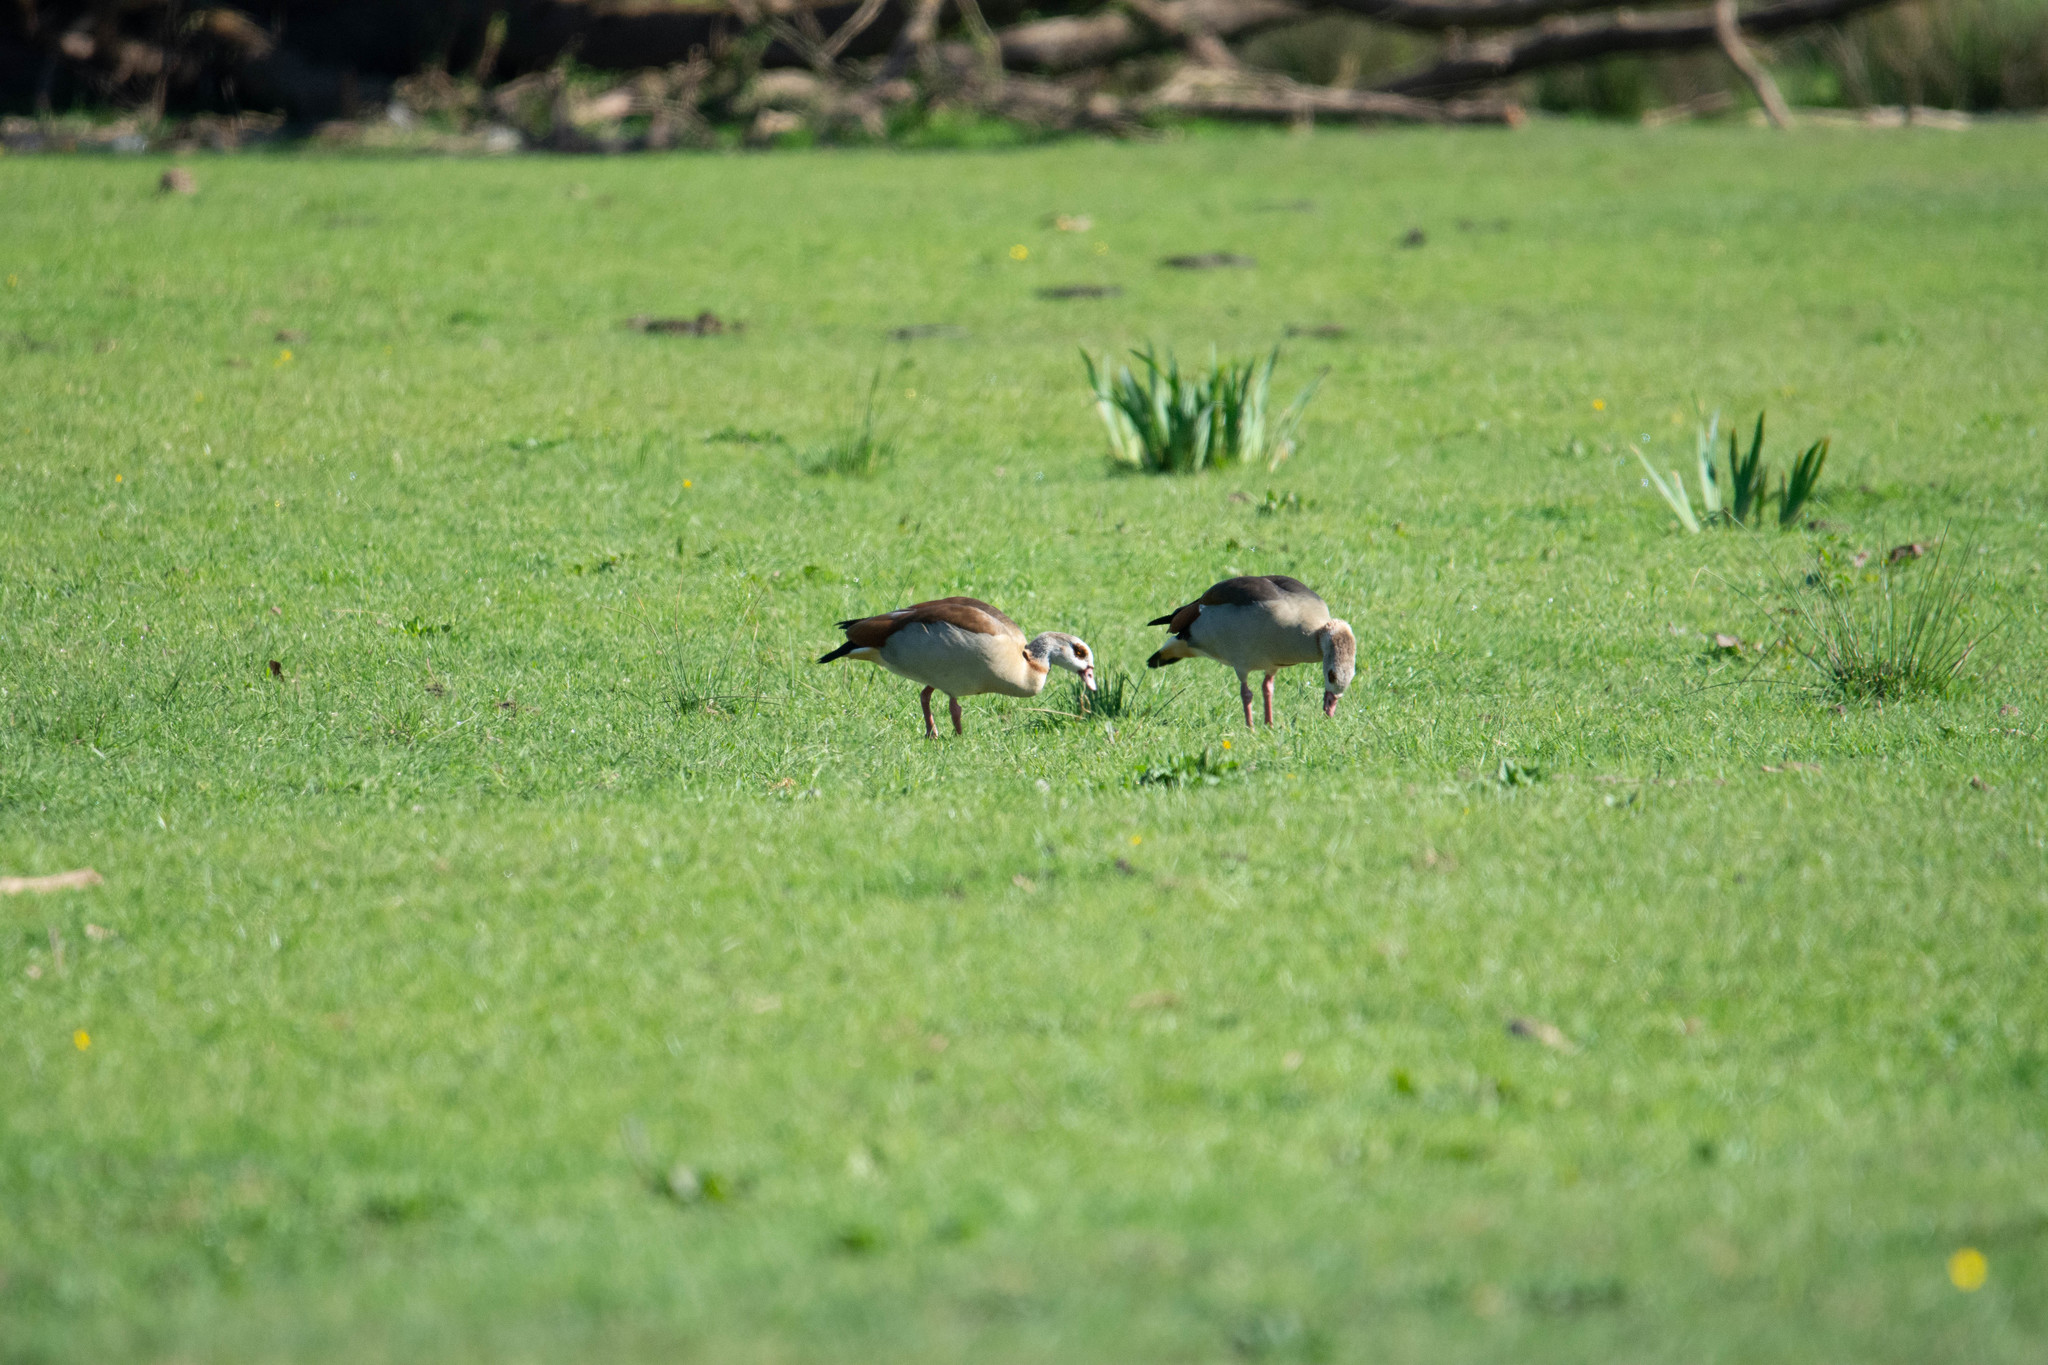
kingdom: Animalia
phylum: Chordata
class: Aves
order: Anseriformes
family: Anatidae
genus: Alopochen
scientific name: Alopochen aegyptiaca
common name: Egyptian goose
